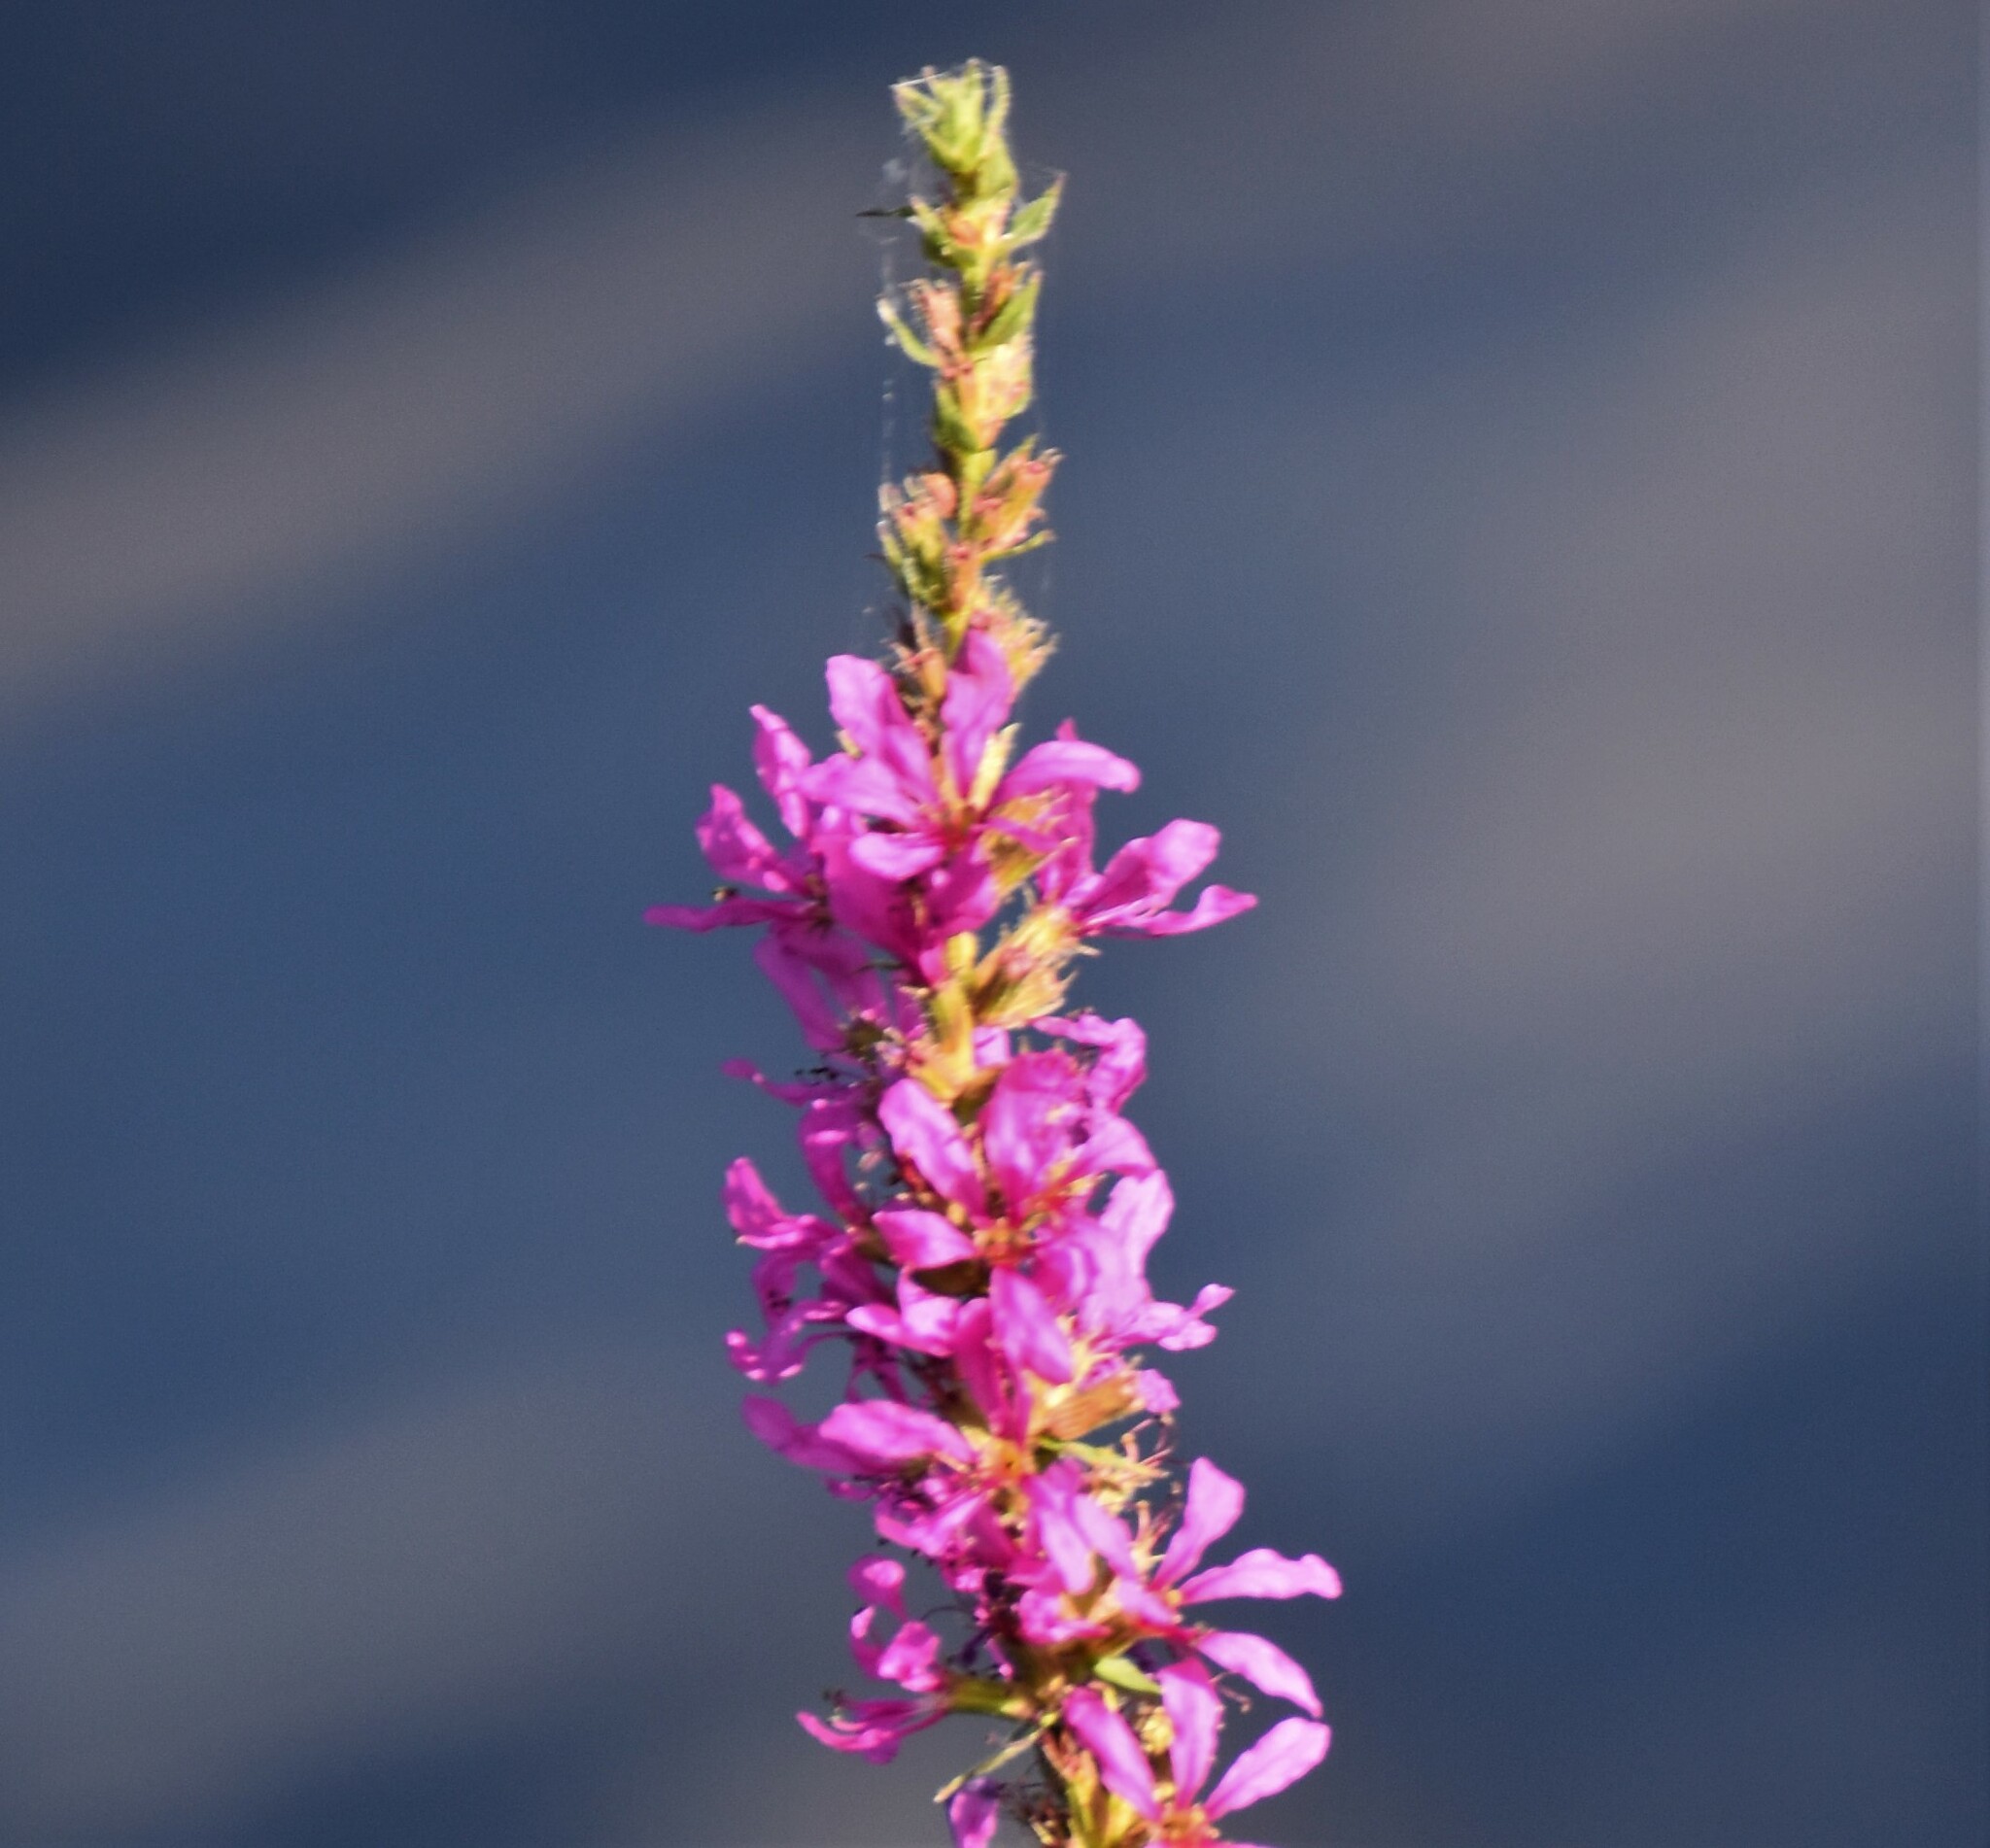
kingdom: Plantae
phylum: Tracheophyta
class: Magnoliopsida
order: Myrtales
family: Lythraceae
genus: Lythrum
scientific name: Lythrum salicaria
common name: Purple loosestrife
